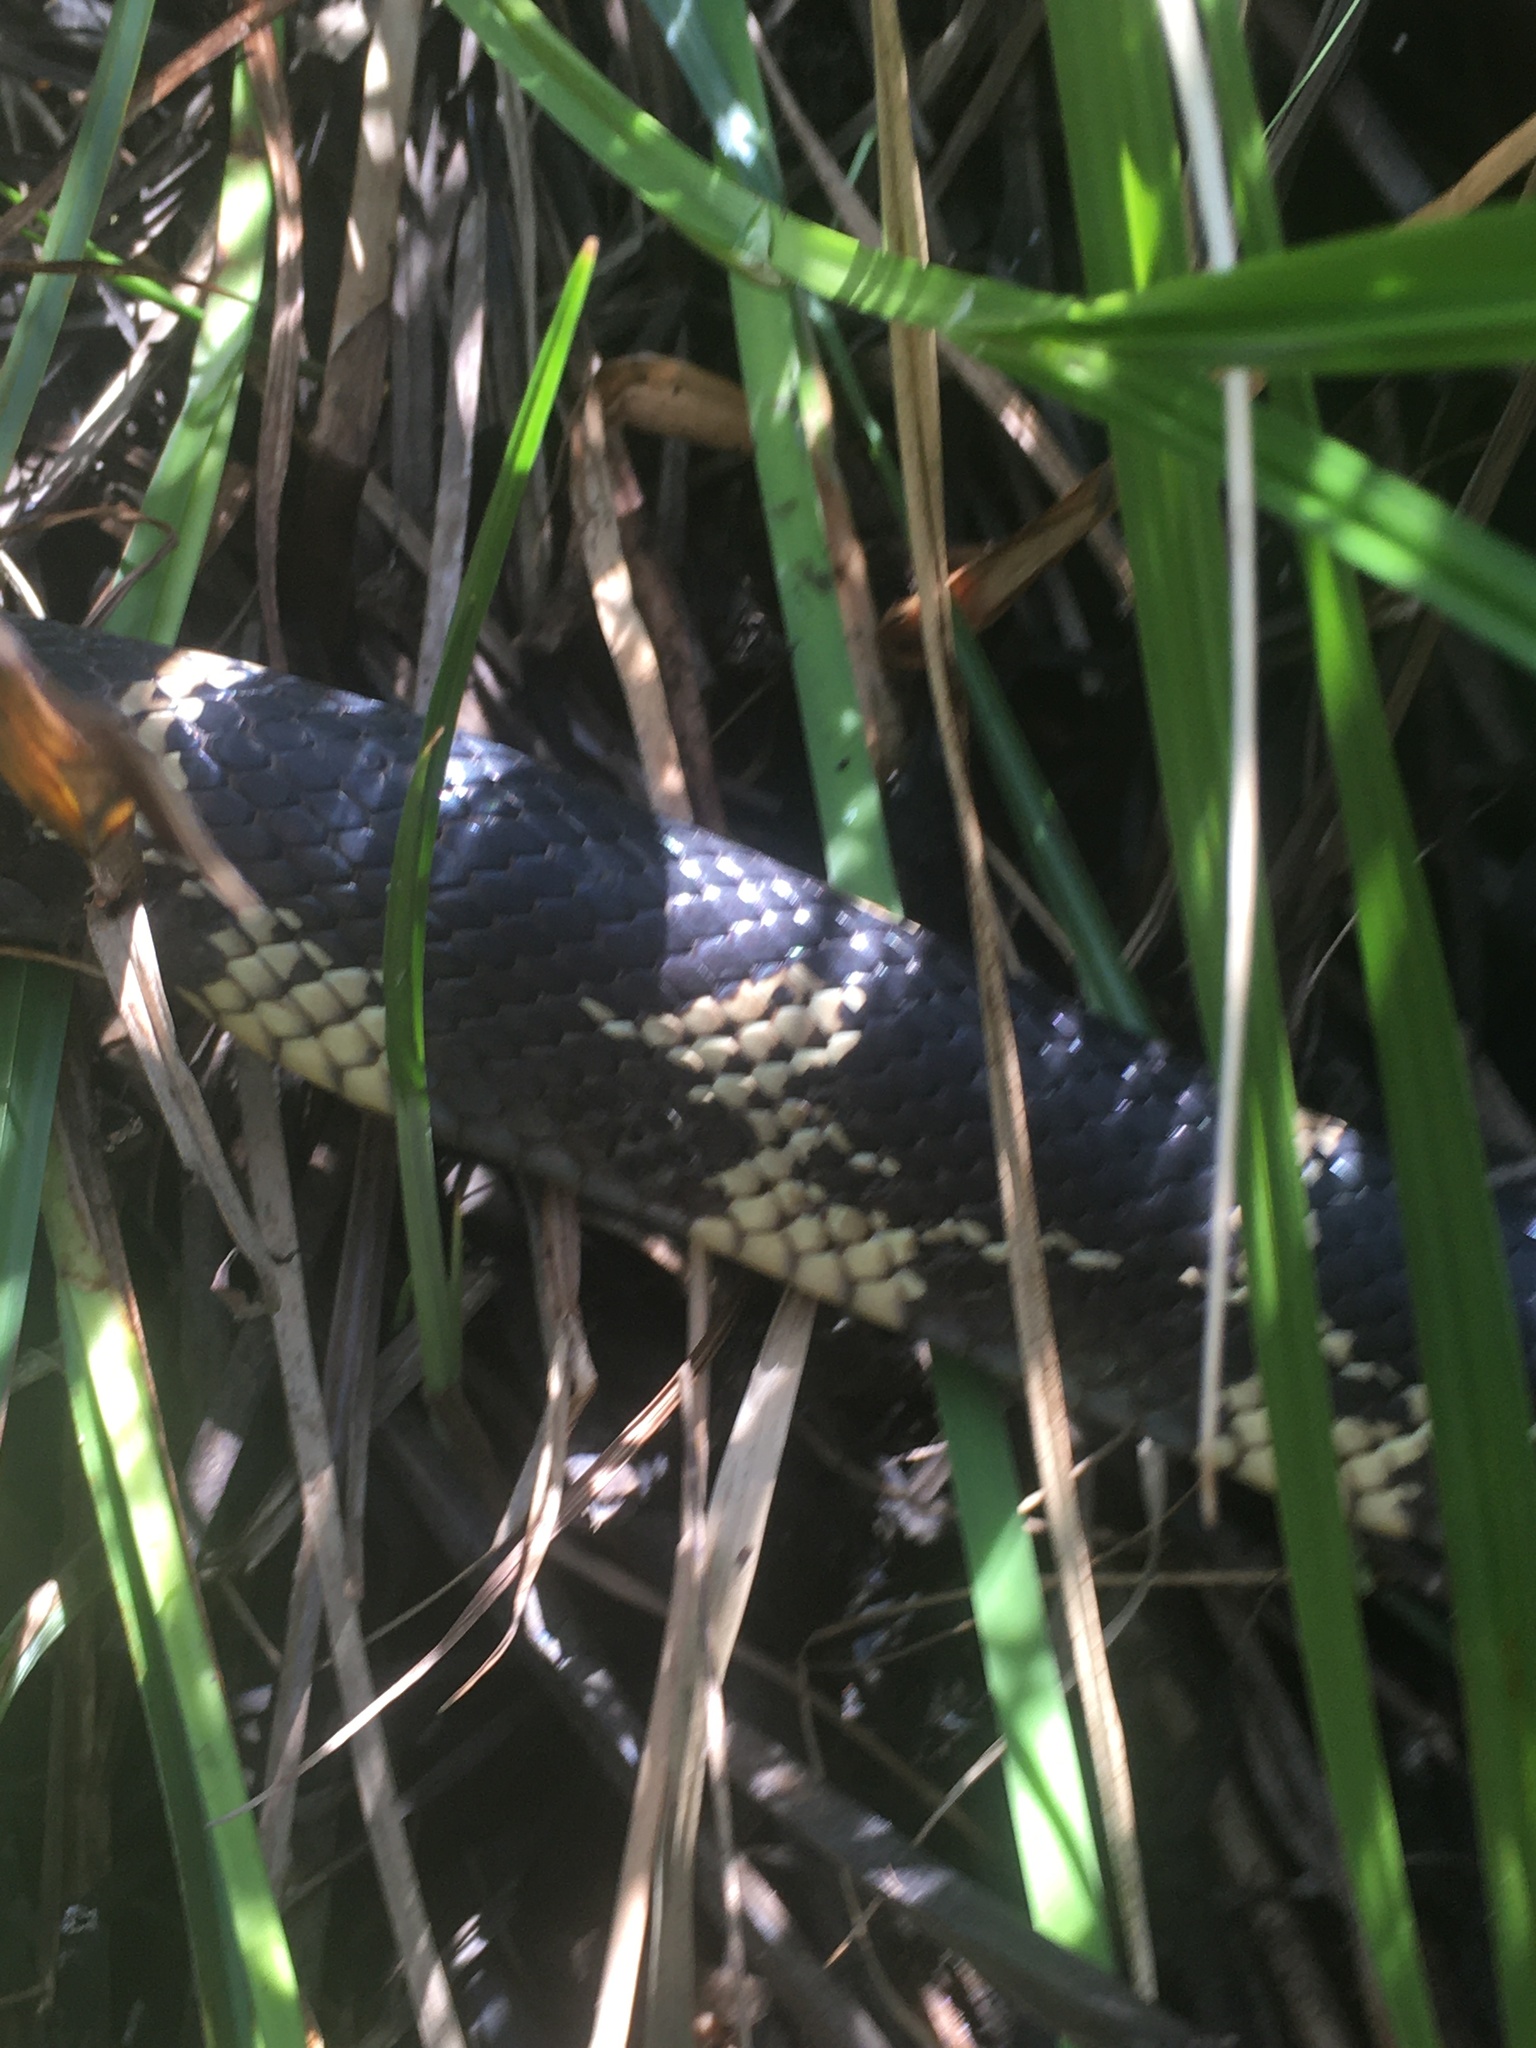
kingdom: Animalia
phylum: Chordata
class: Squamata
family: Colubridae
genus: Lampropeltis
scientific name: Lampropeltis getula
